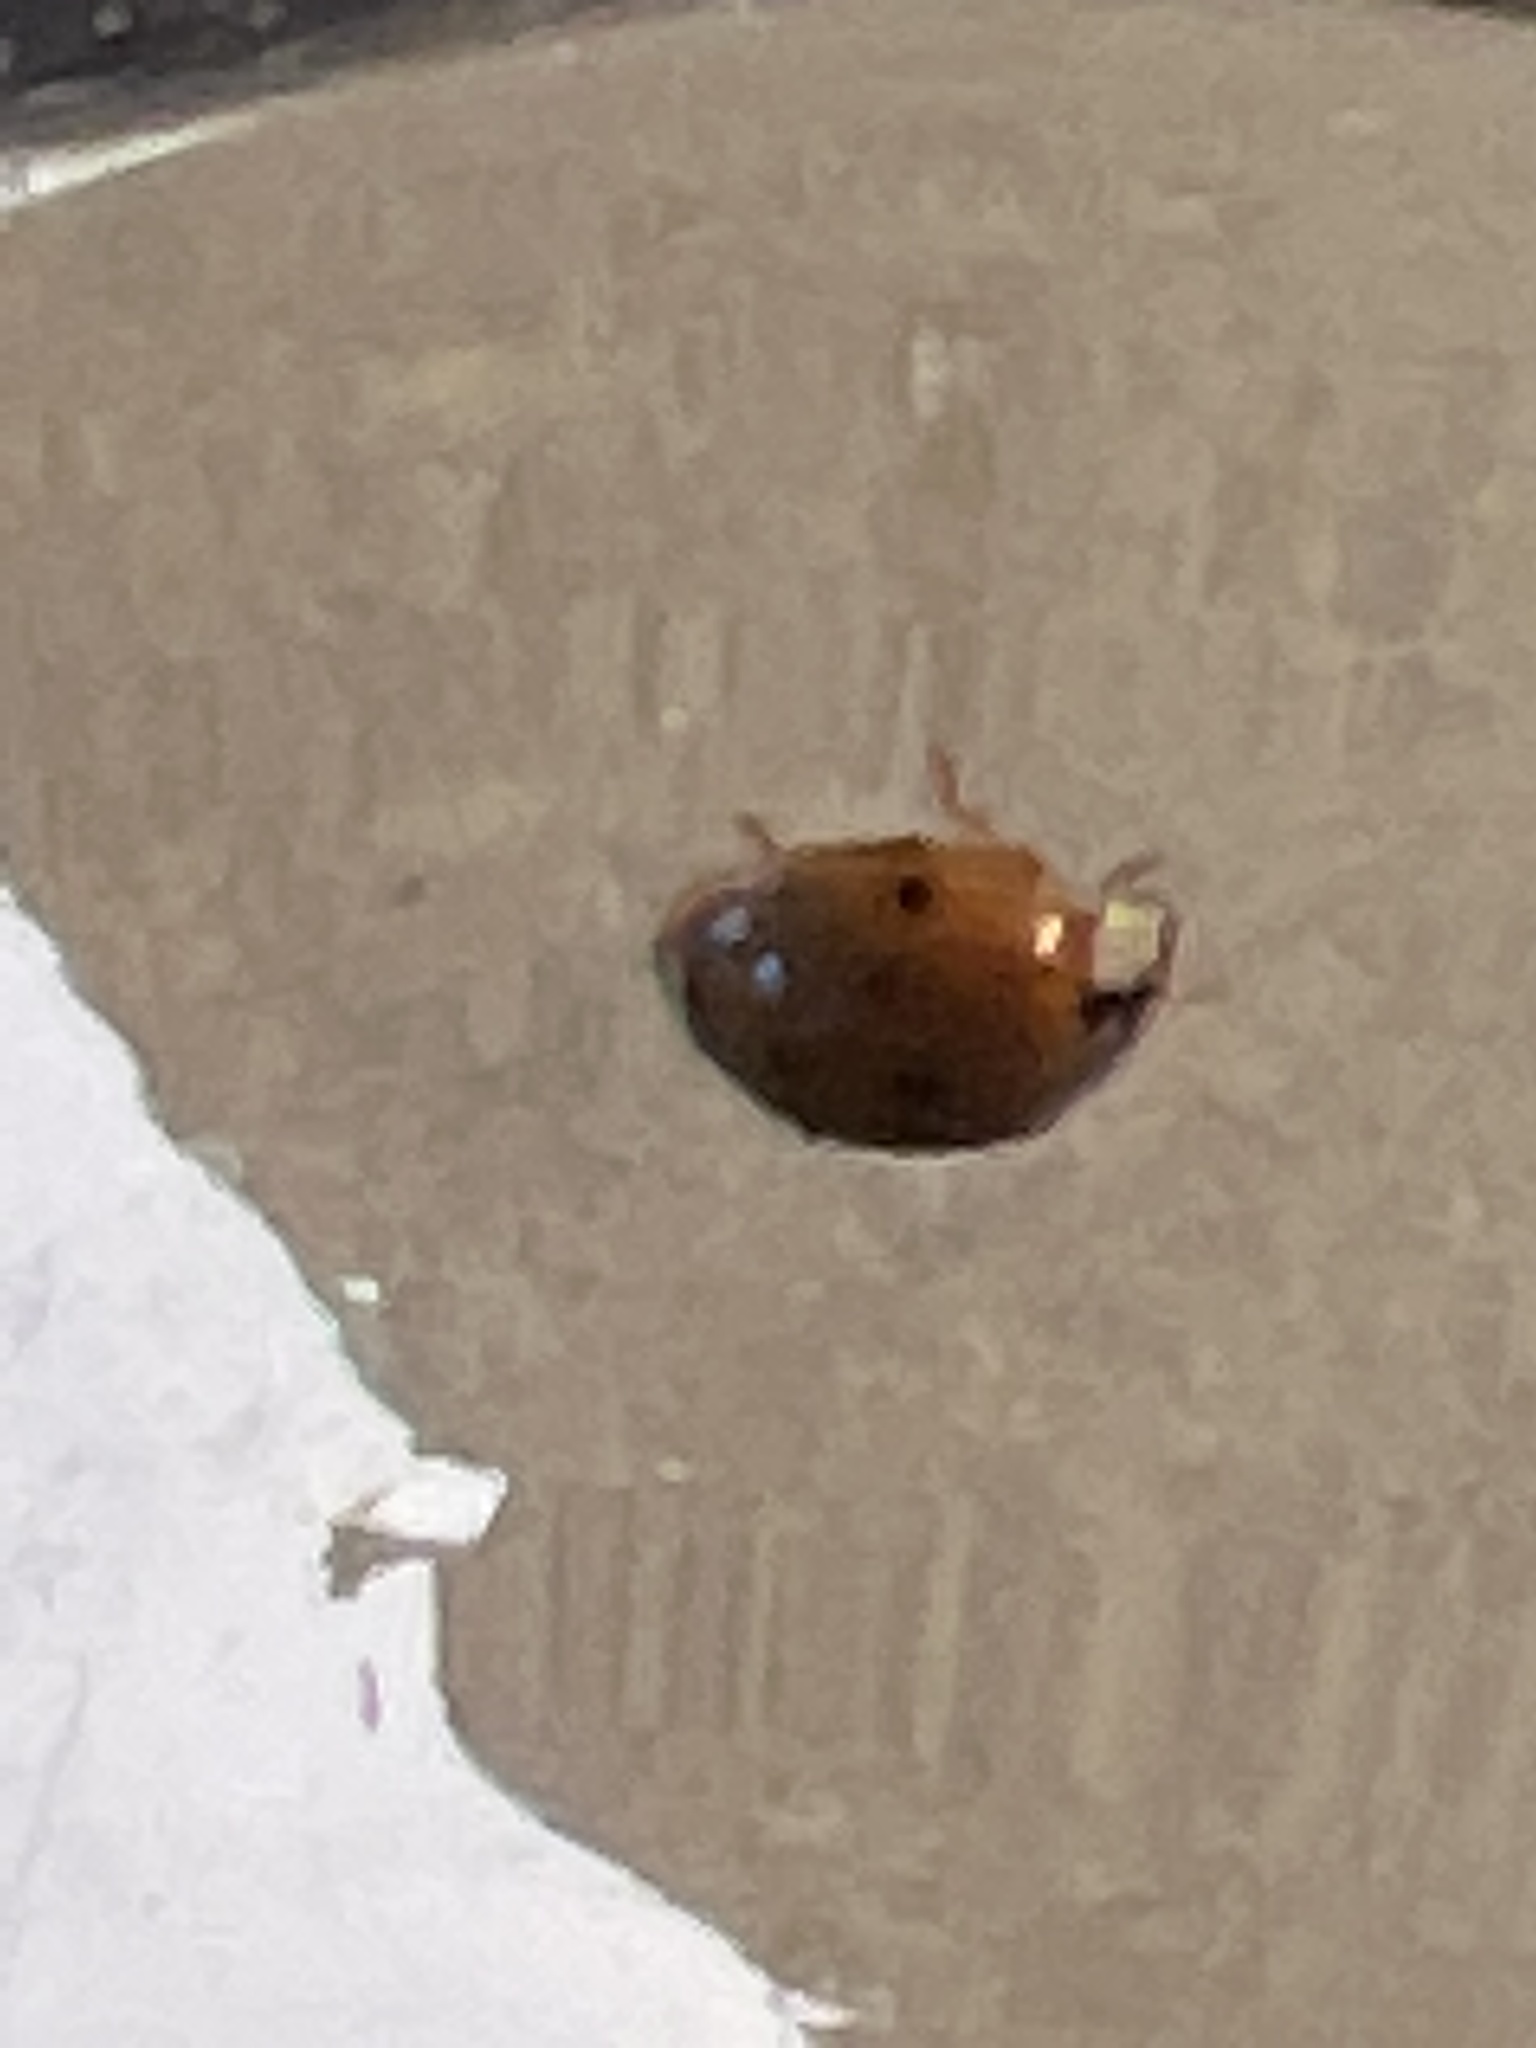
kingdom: Animalia
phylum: Arthropoda
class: Insecta
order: Coleoptera
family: Coccinellidae
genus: Harmonia
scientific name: Harmonia axyridis
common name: Harlequin ladybird
